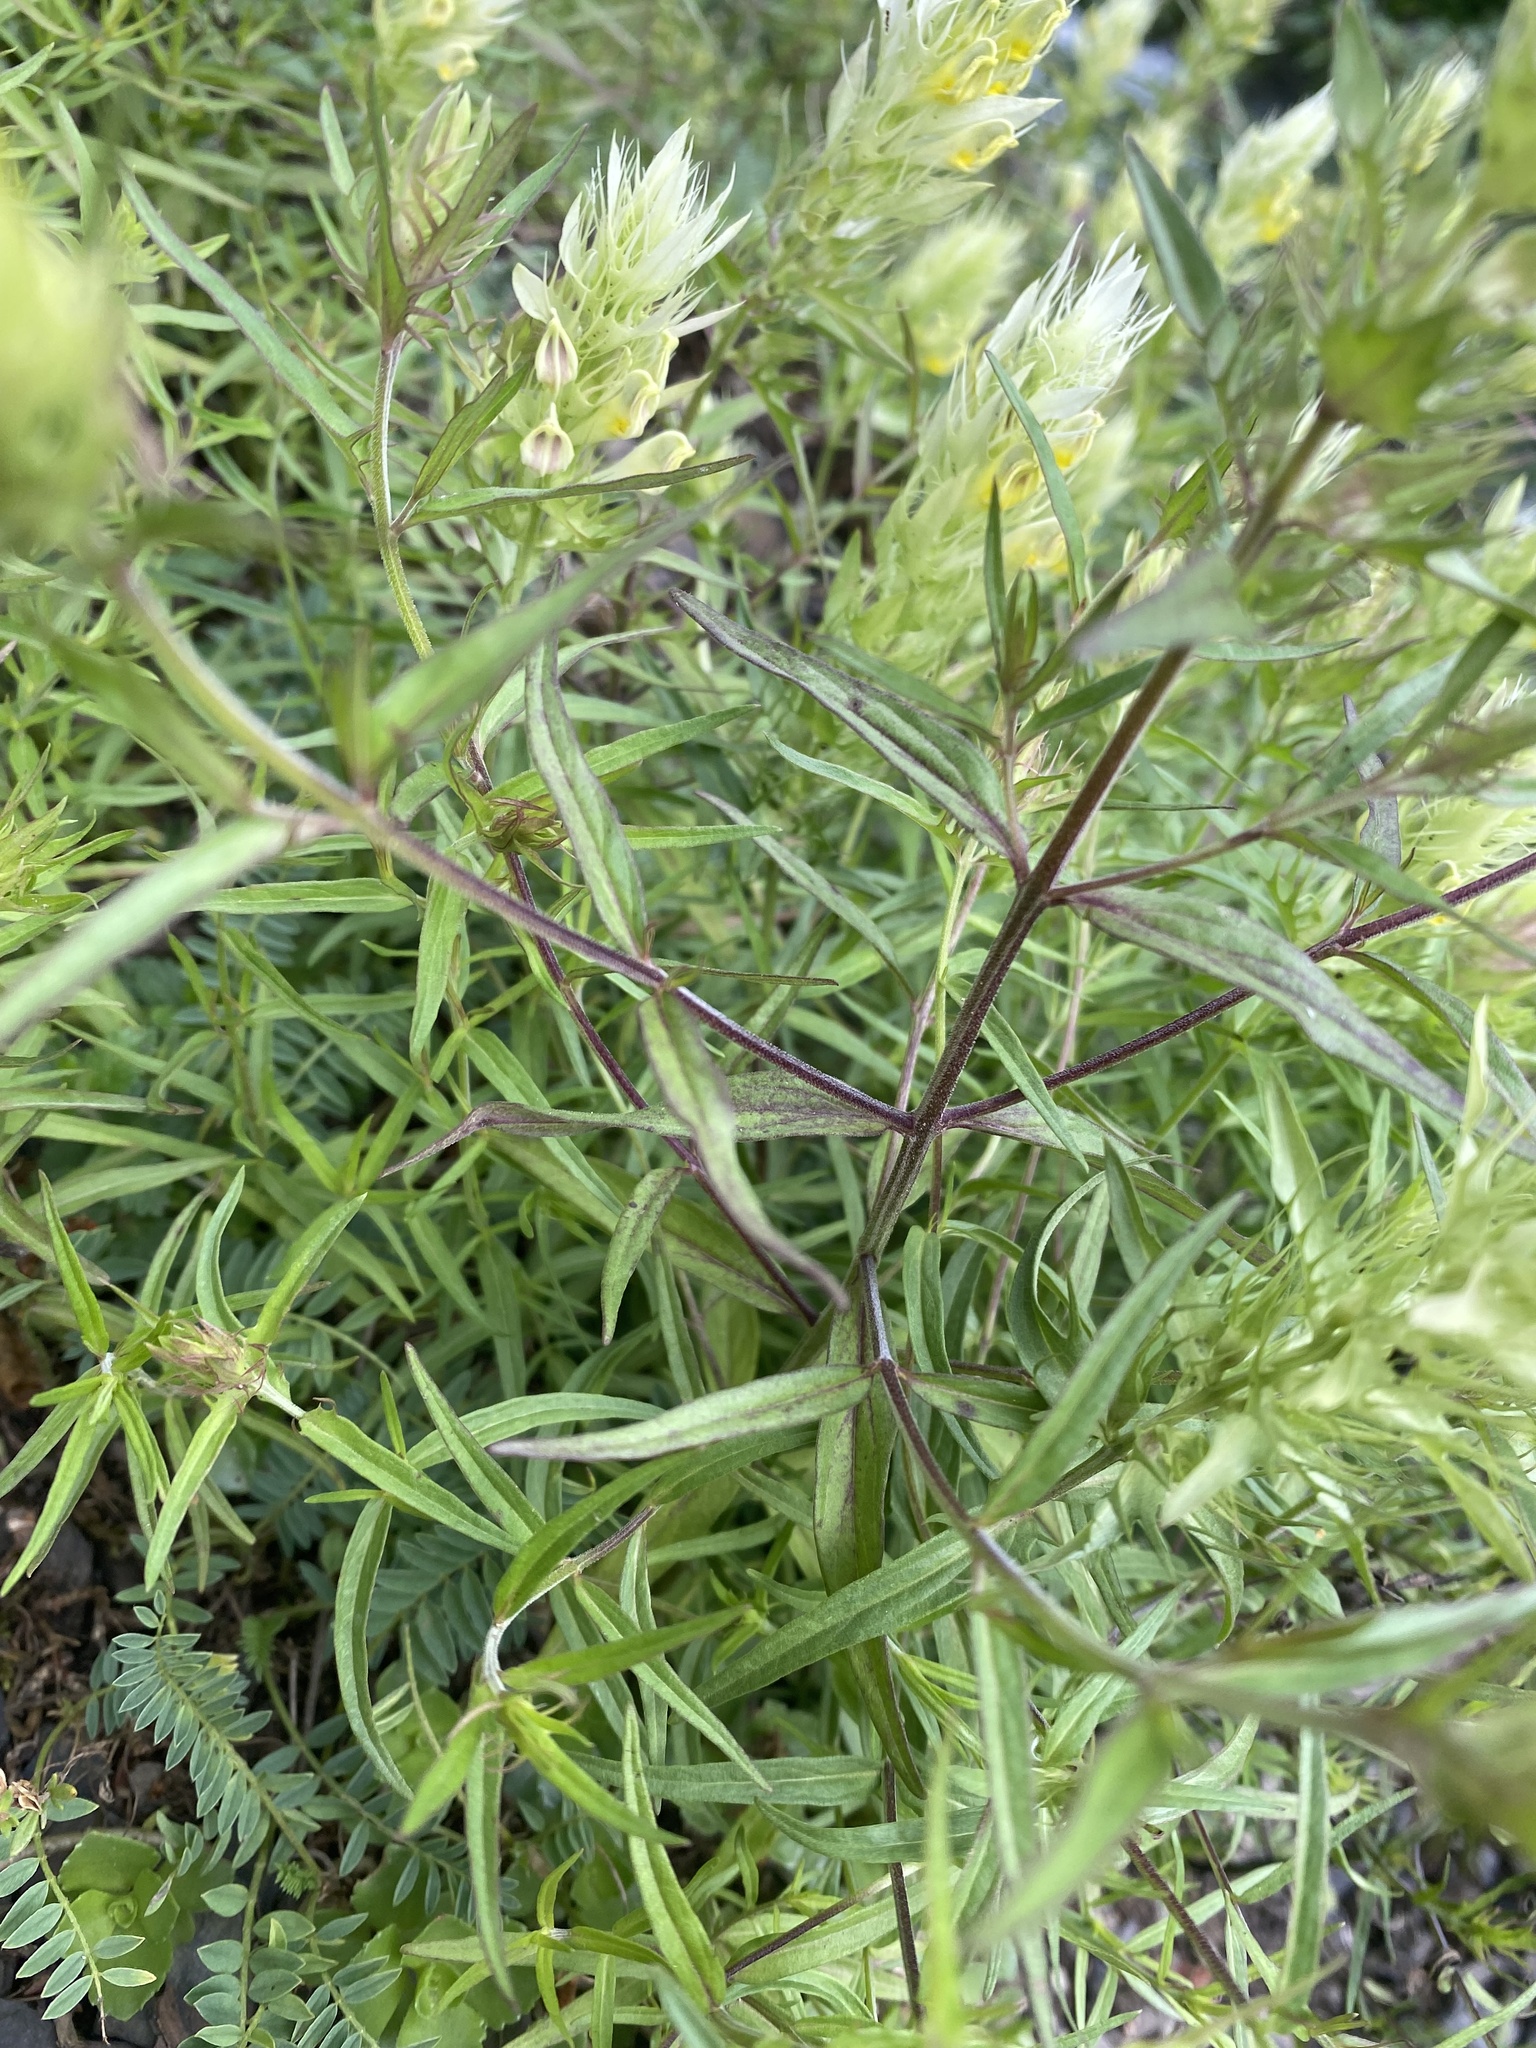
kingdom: Plantae
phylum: Tracheophyta
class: Magnoliopsida
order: Lamiales
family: Orobanchaceae
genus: Melampyrum
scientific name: Melampyrum arvense
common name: Field cow-wheat
